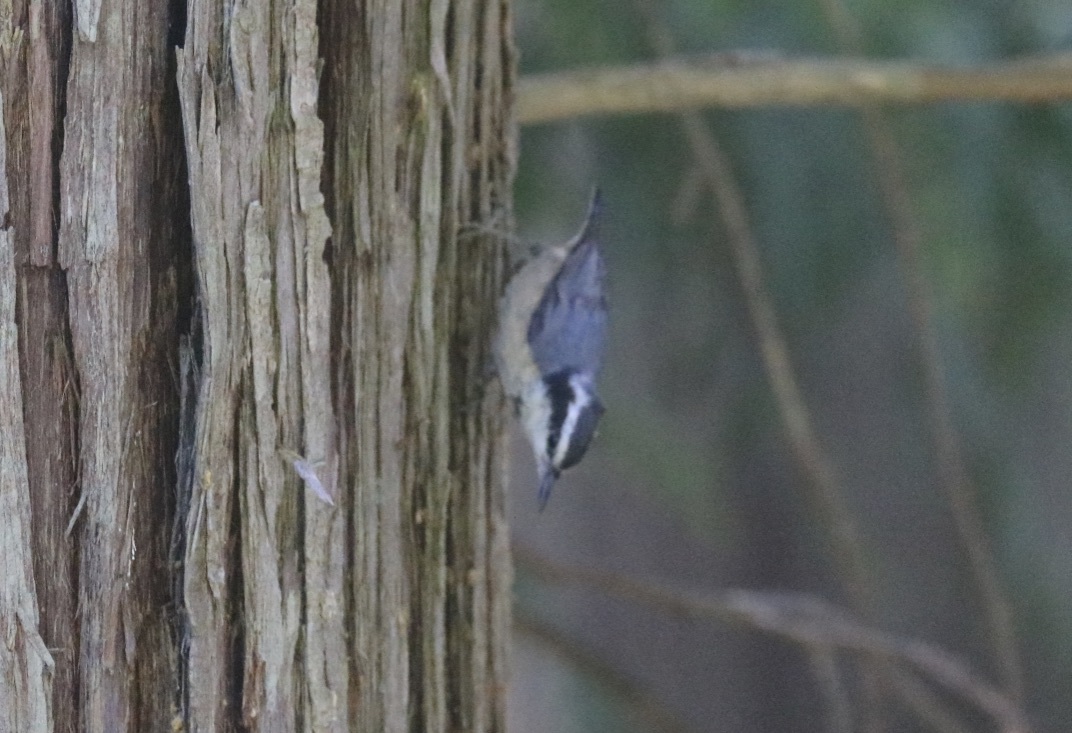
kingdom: Animalia
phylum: Chordata
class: Aves
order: Passeriformes
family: Sittidae
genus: Sitta
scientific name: Sitta canadensis
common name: Red-breasted nuthatch
